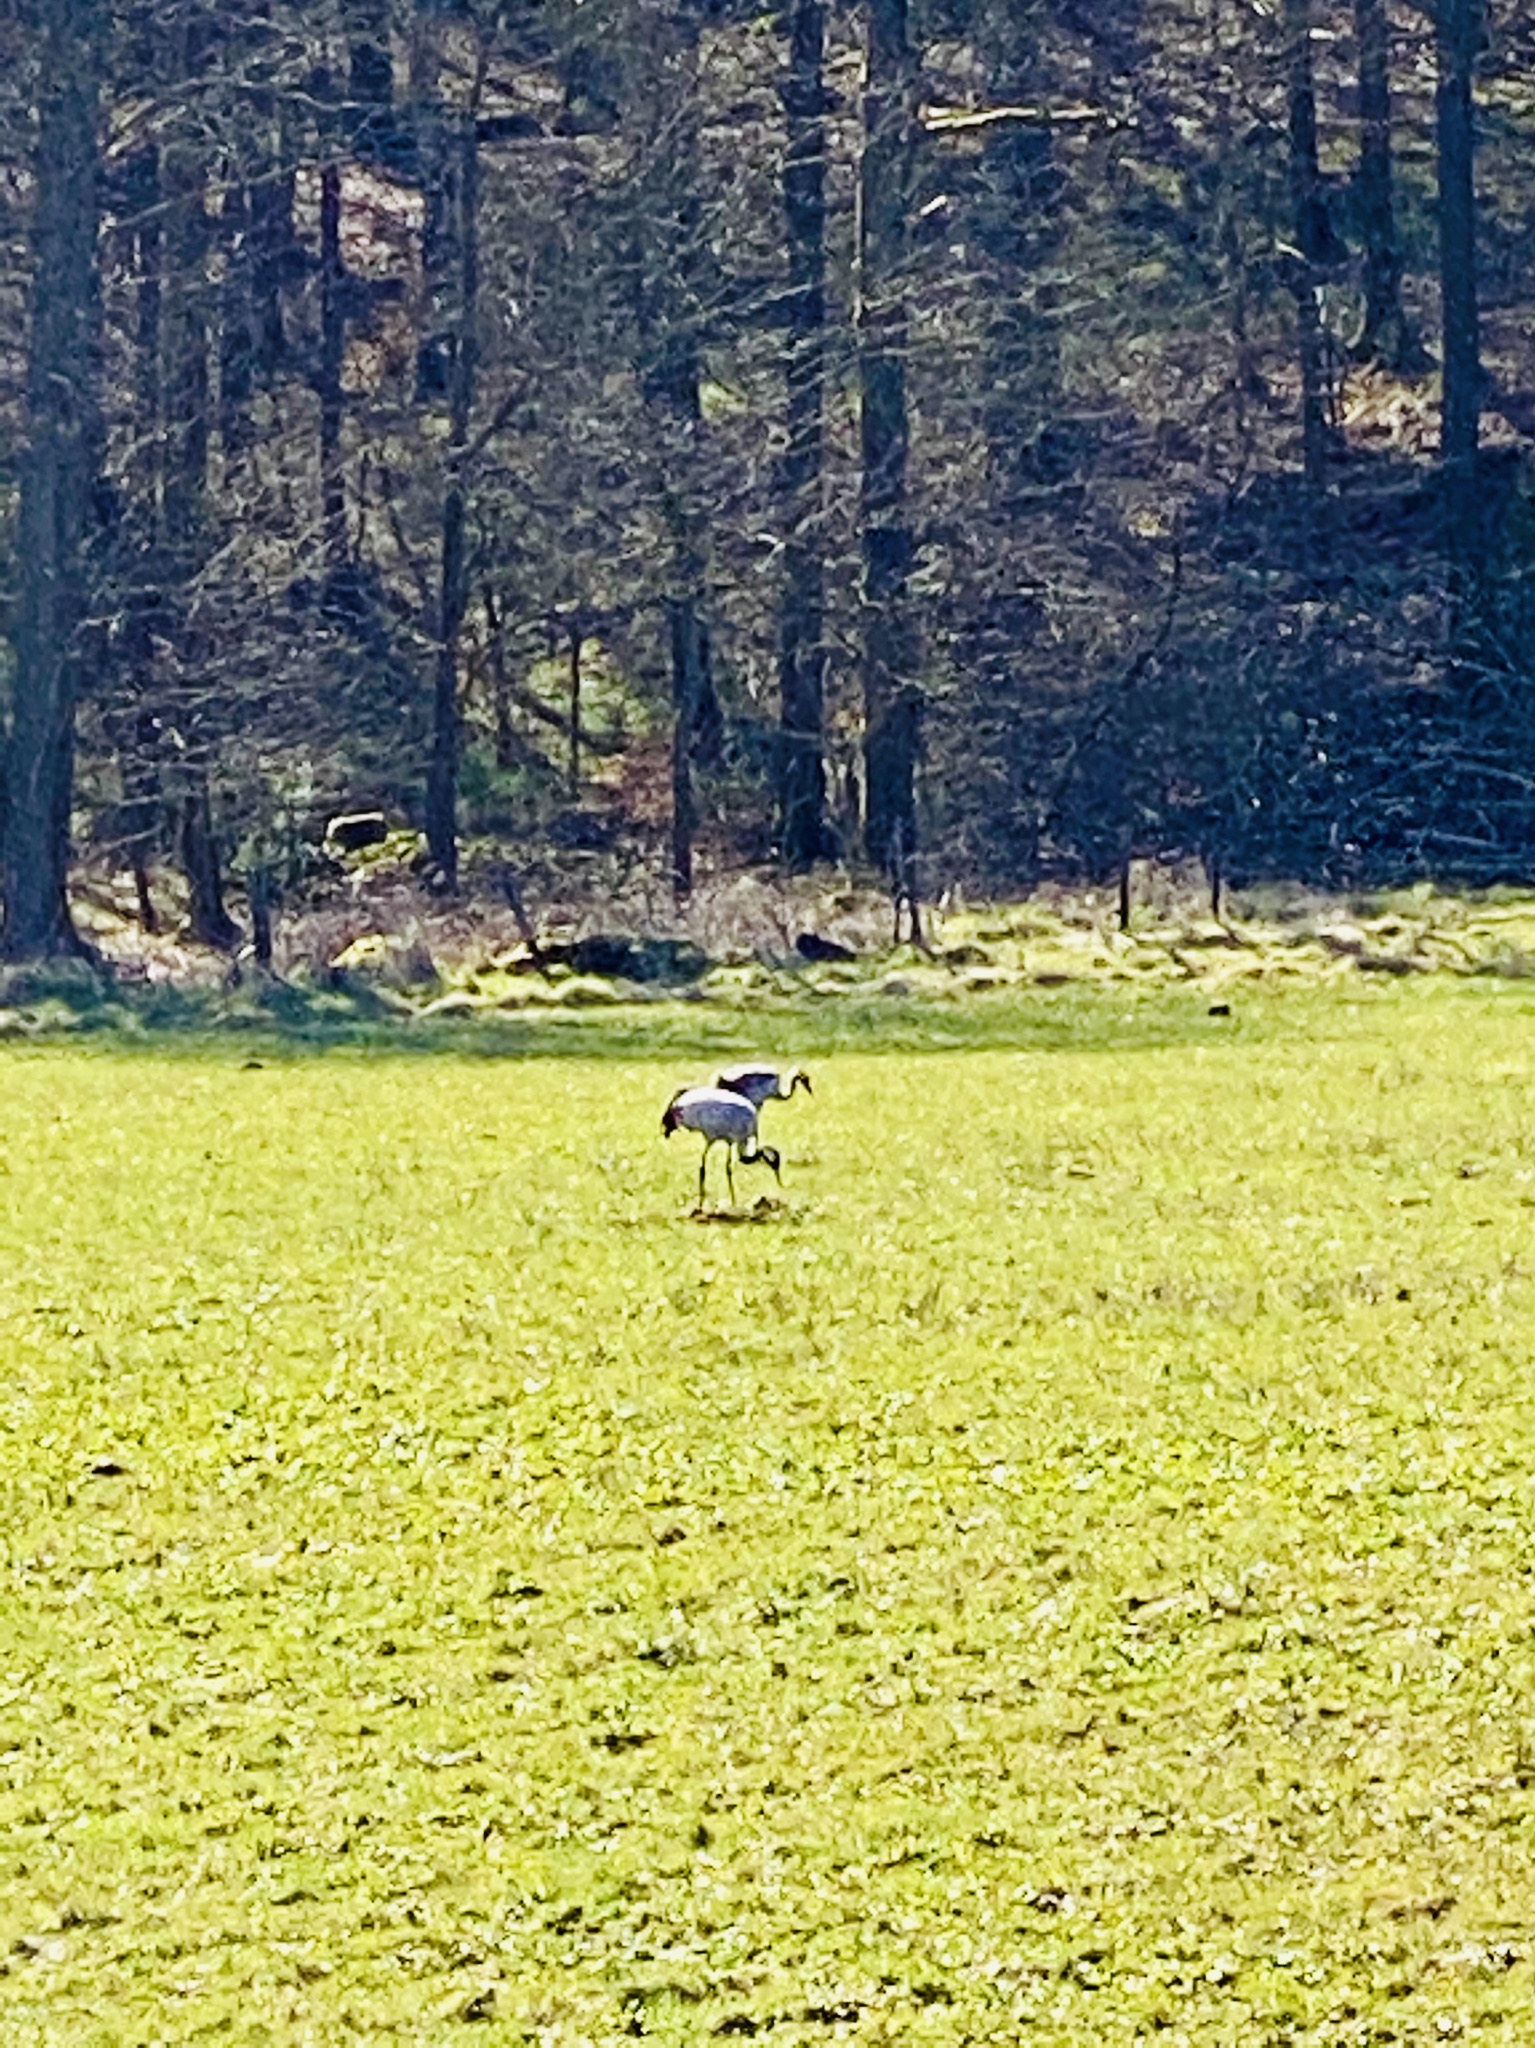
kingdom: Animalia
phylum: Chordata
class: Aves
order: Gruiformes
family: Gruidae
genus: Grus
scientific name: Grus grus
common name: Common crane
